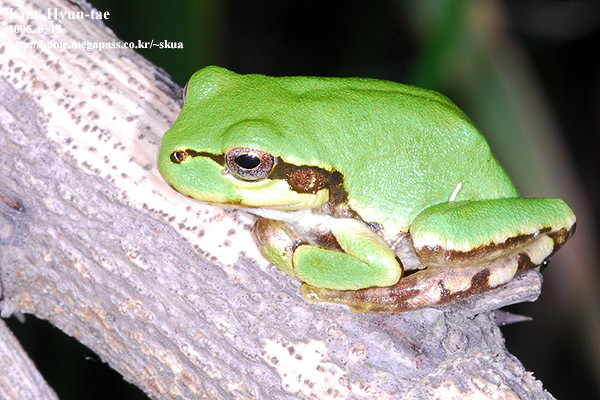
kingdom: Animalia
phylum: Chordata
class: Amphibia
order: Anura
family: Hylidae
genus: Dryophytes
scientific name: Dryophytes japonicus
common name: Japanese treefrog
